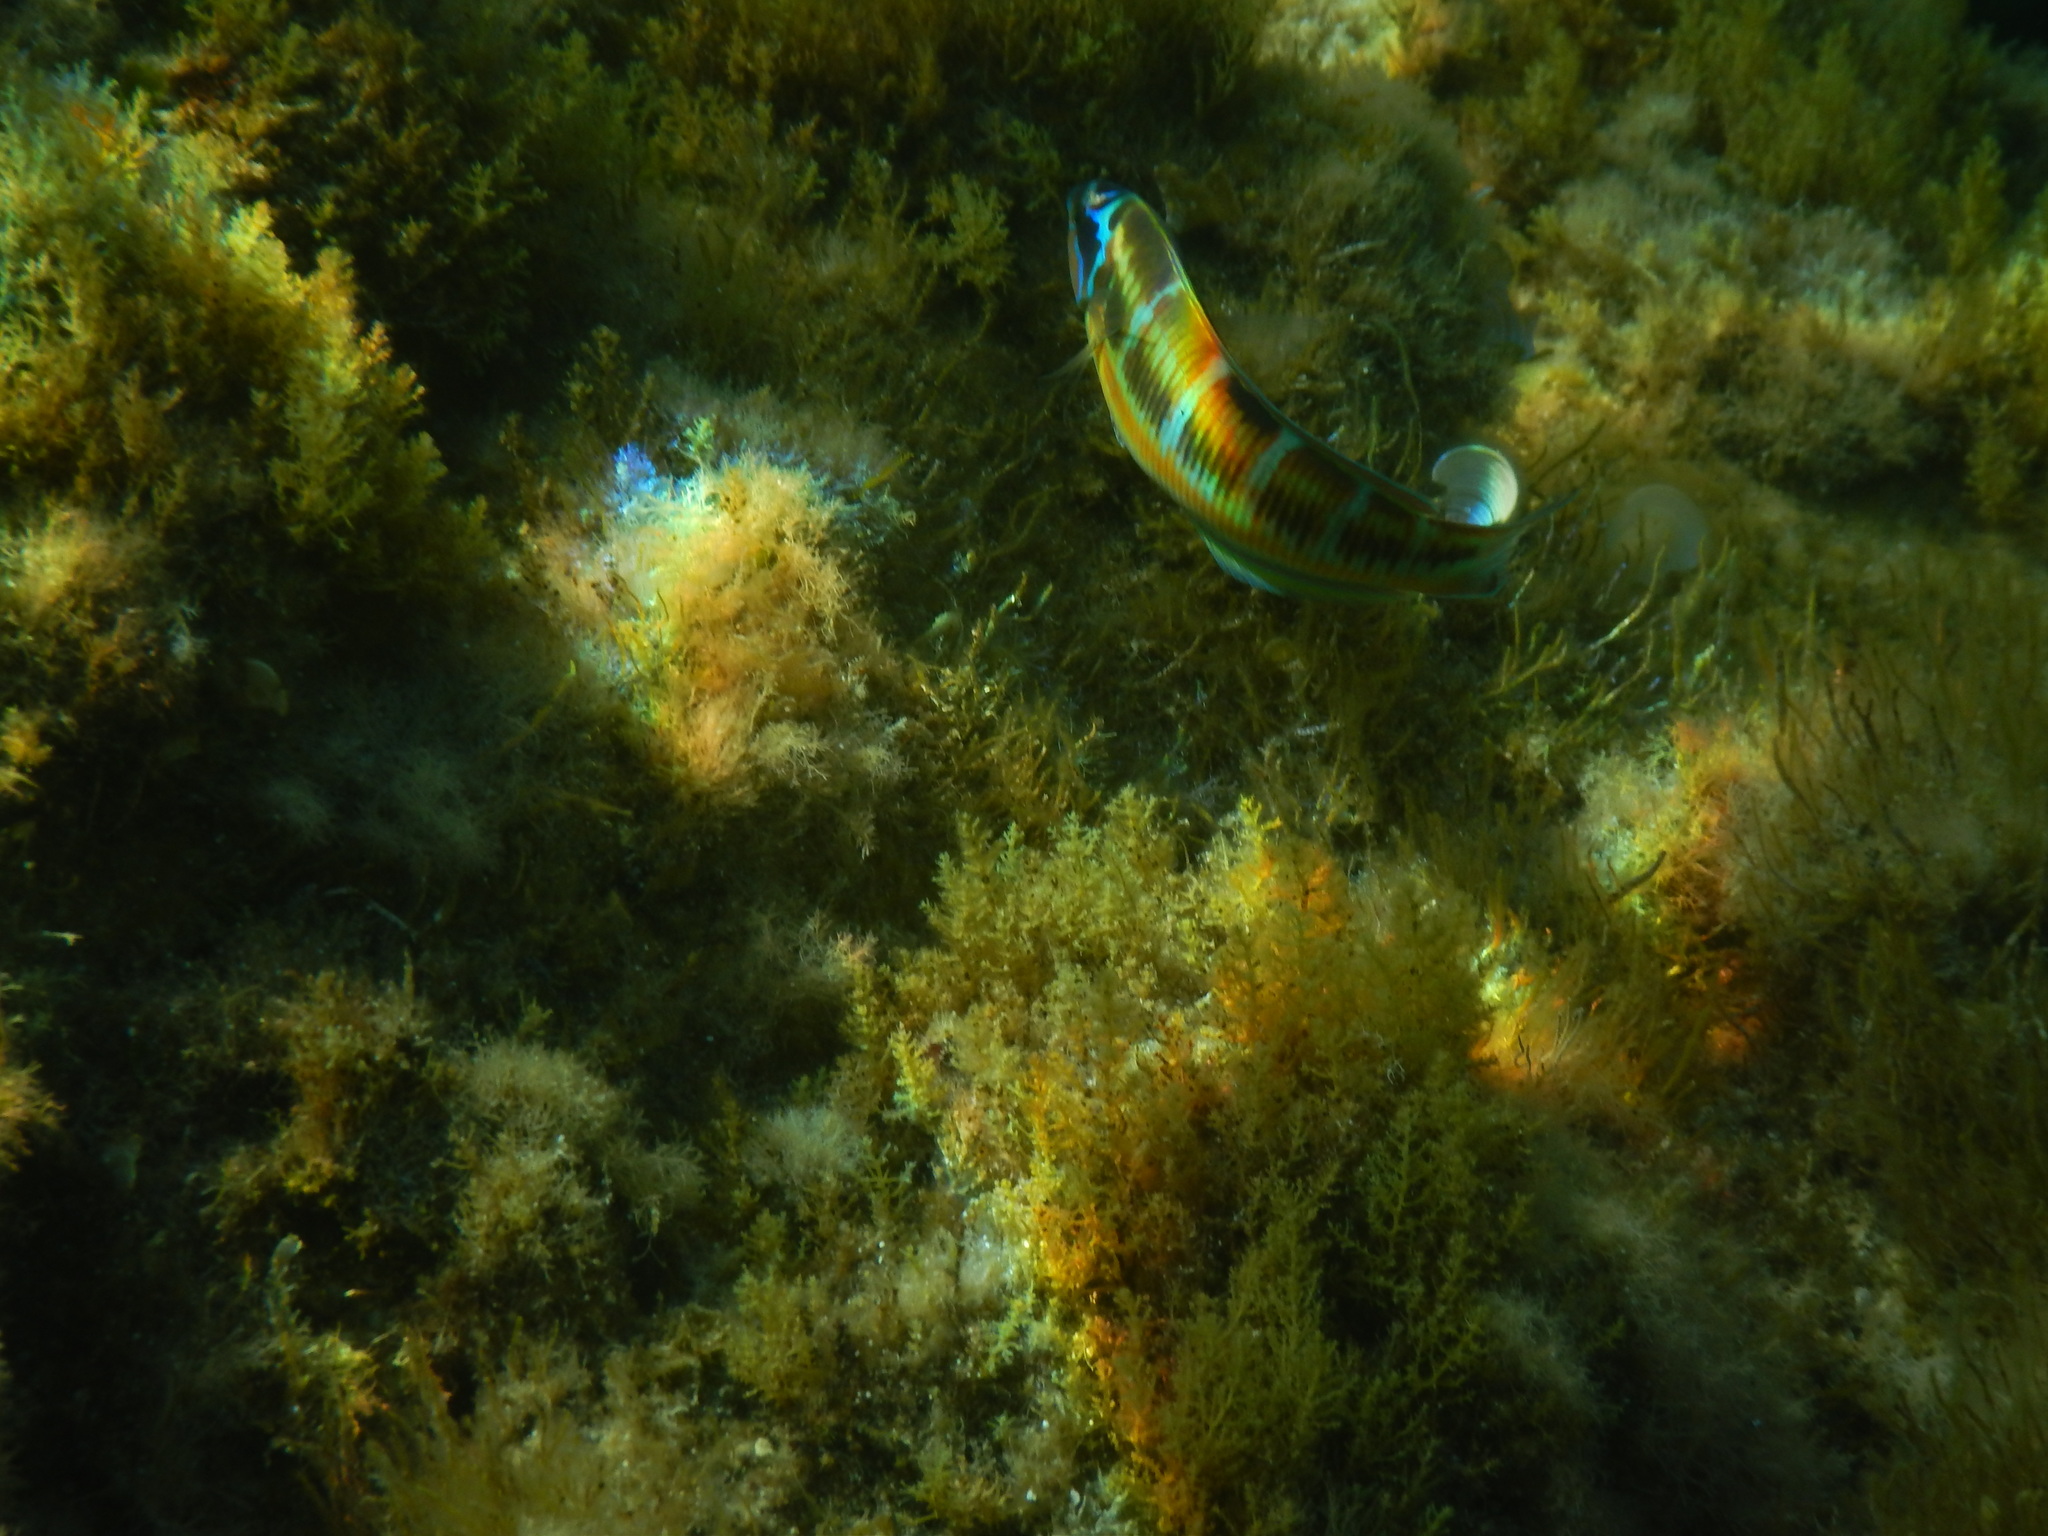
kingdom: Animalia
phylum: Chordata
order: Perciformes
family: Labridae
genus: Thalassoma
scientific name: Thalassoma pavo
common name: Ornate wrasse
